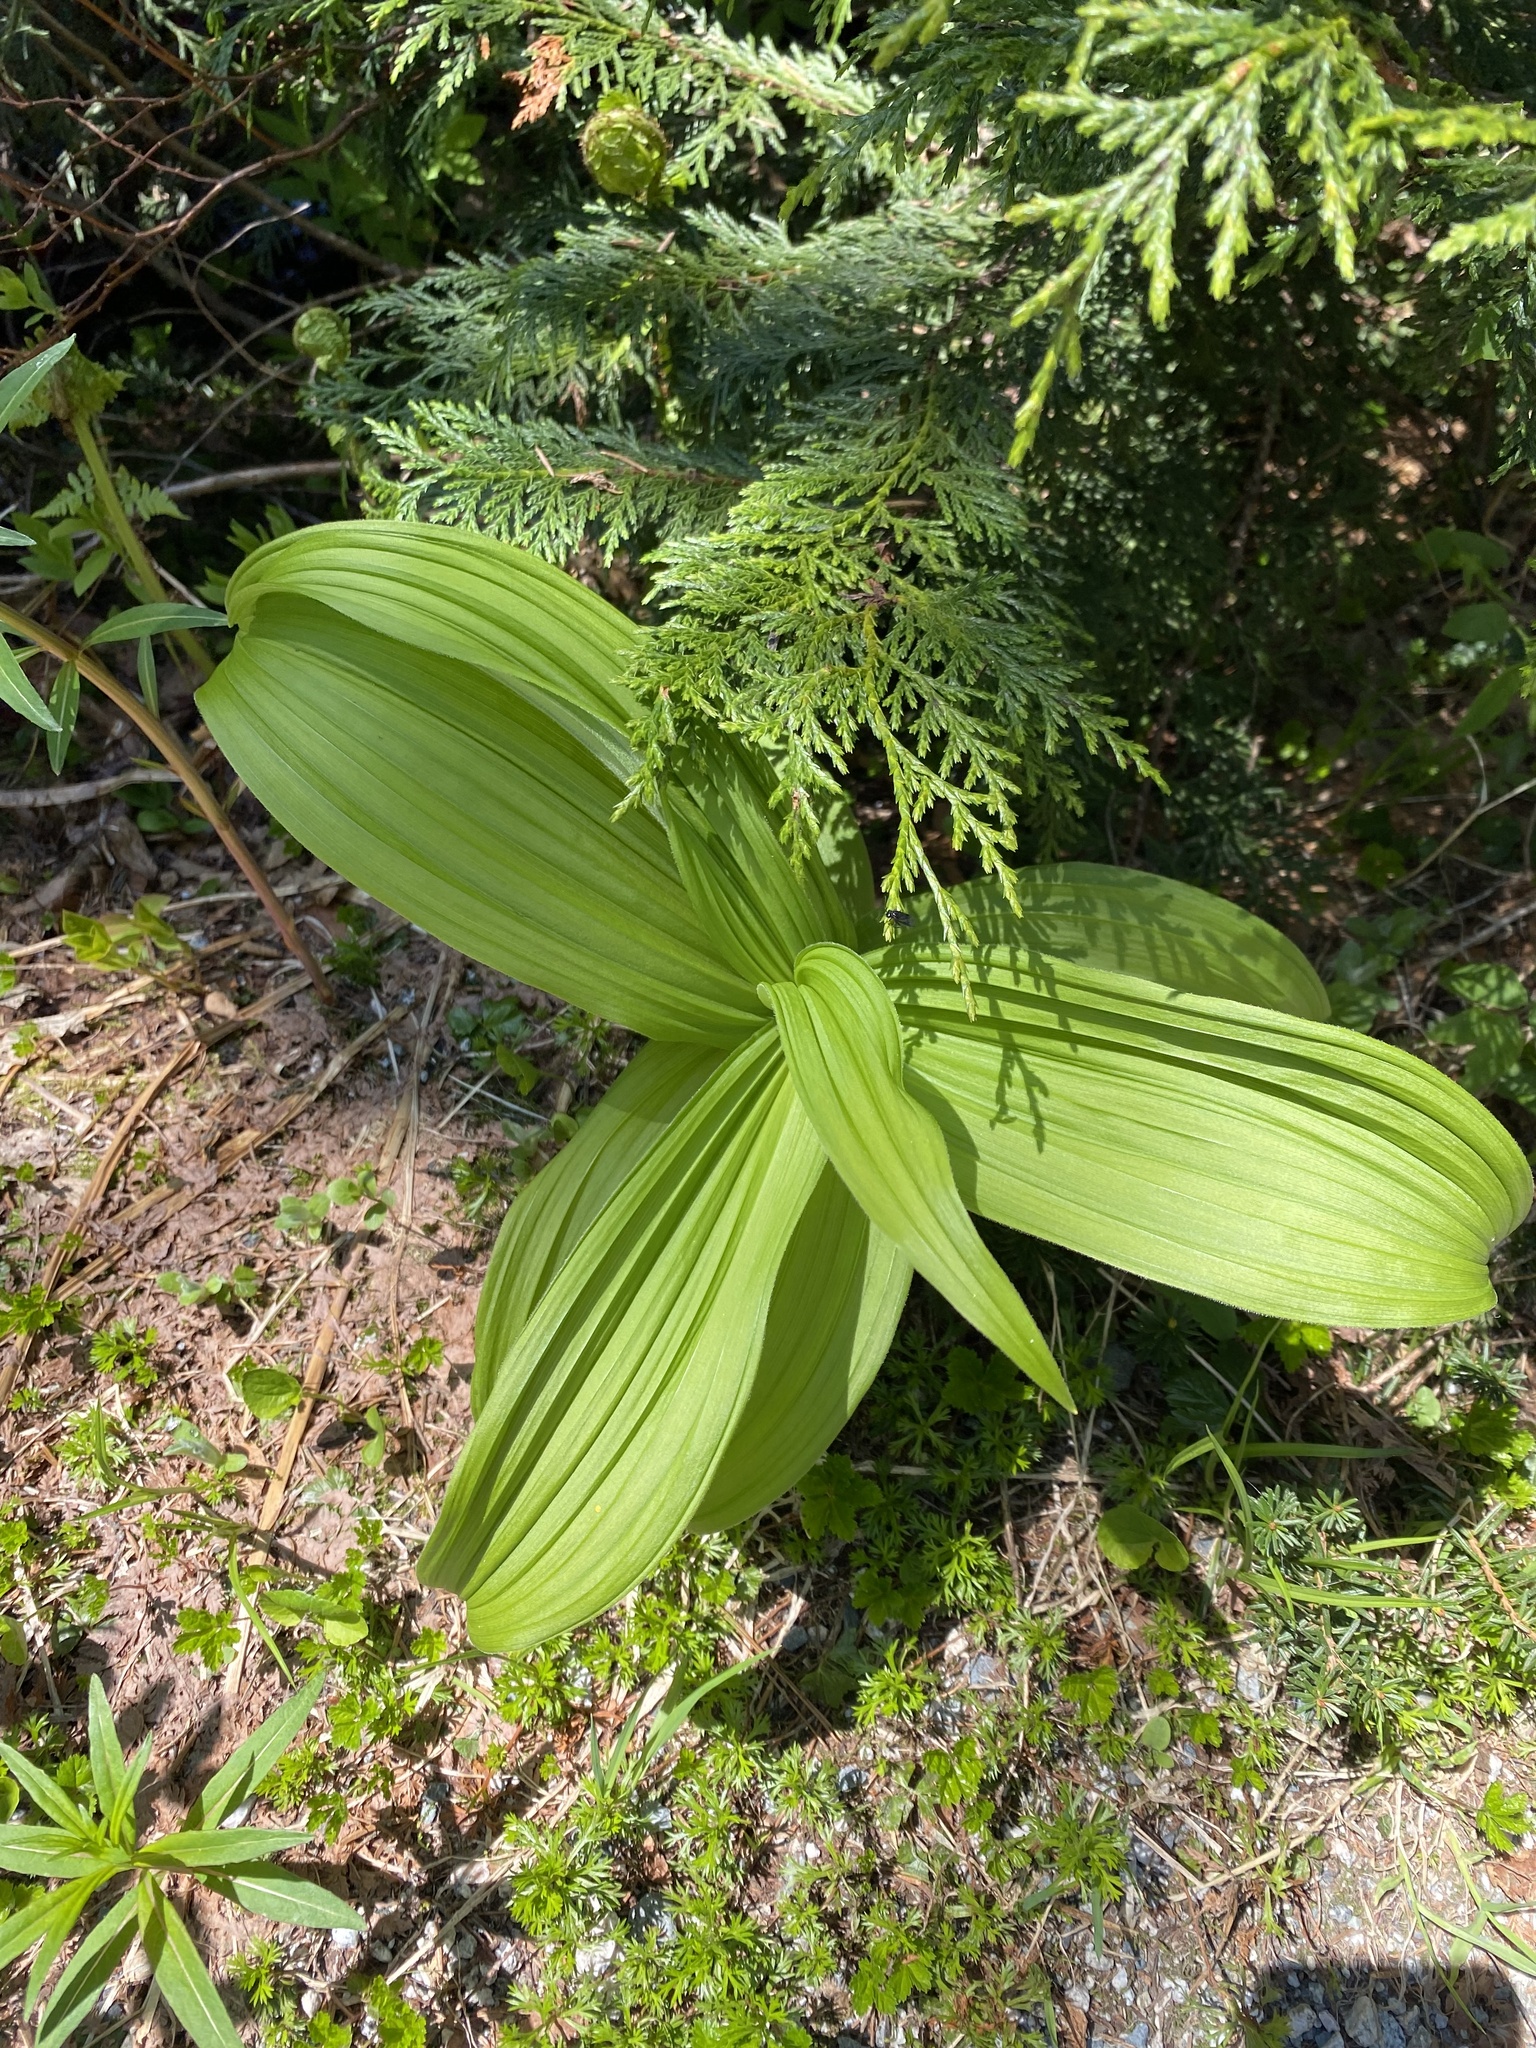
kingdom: Plantae
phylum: Tracheophyta
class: Liliopsida
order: Liliales
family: Melanthiaceae
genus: Veratrum
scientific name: Veratrum viride
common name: American false hellebore
